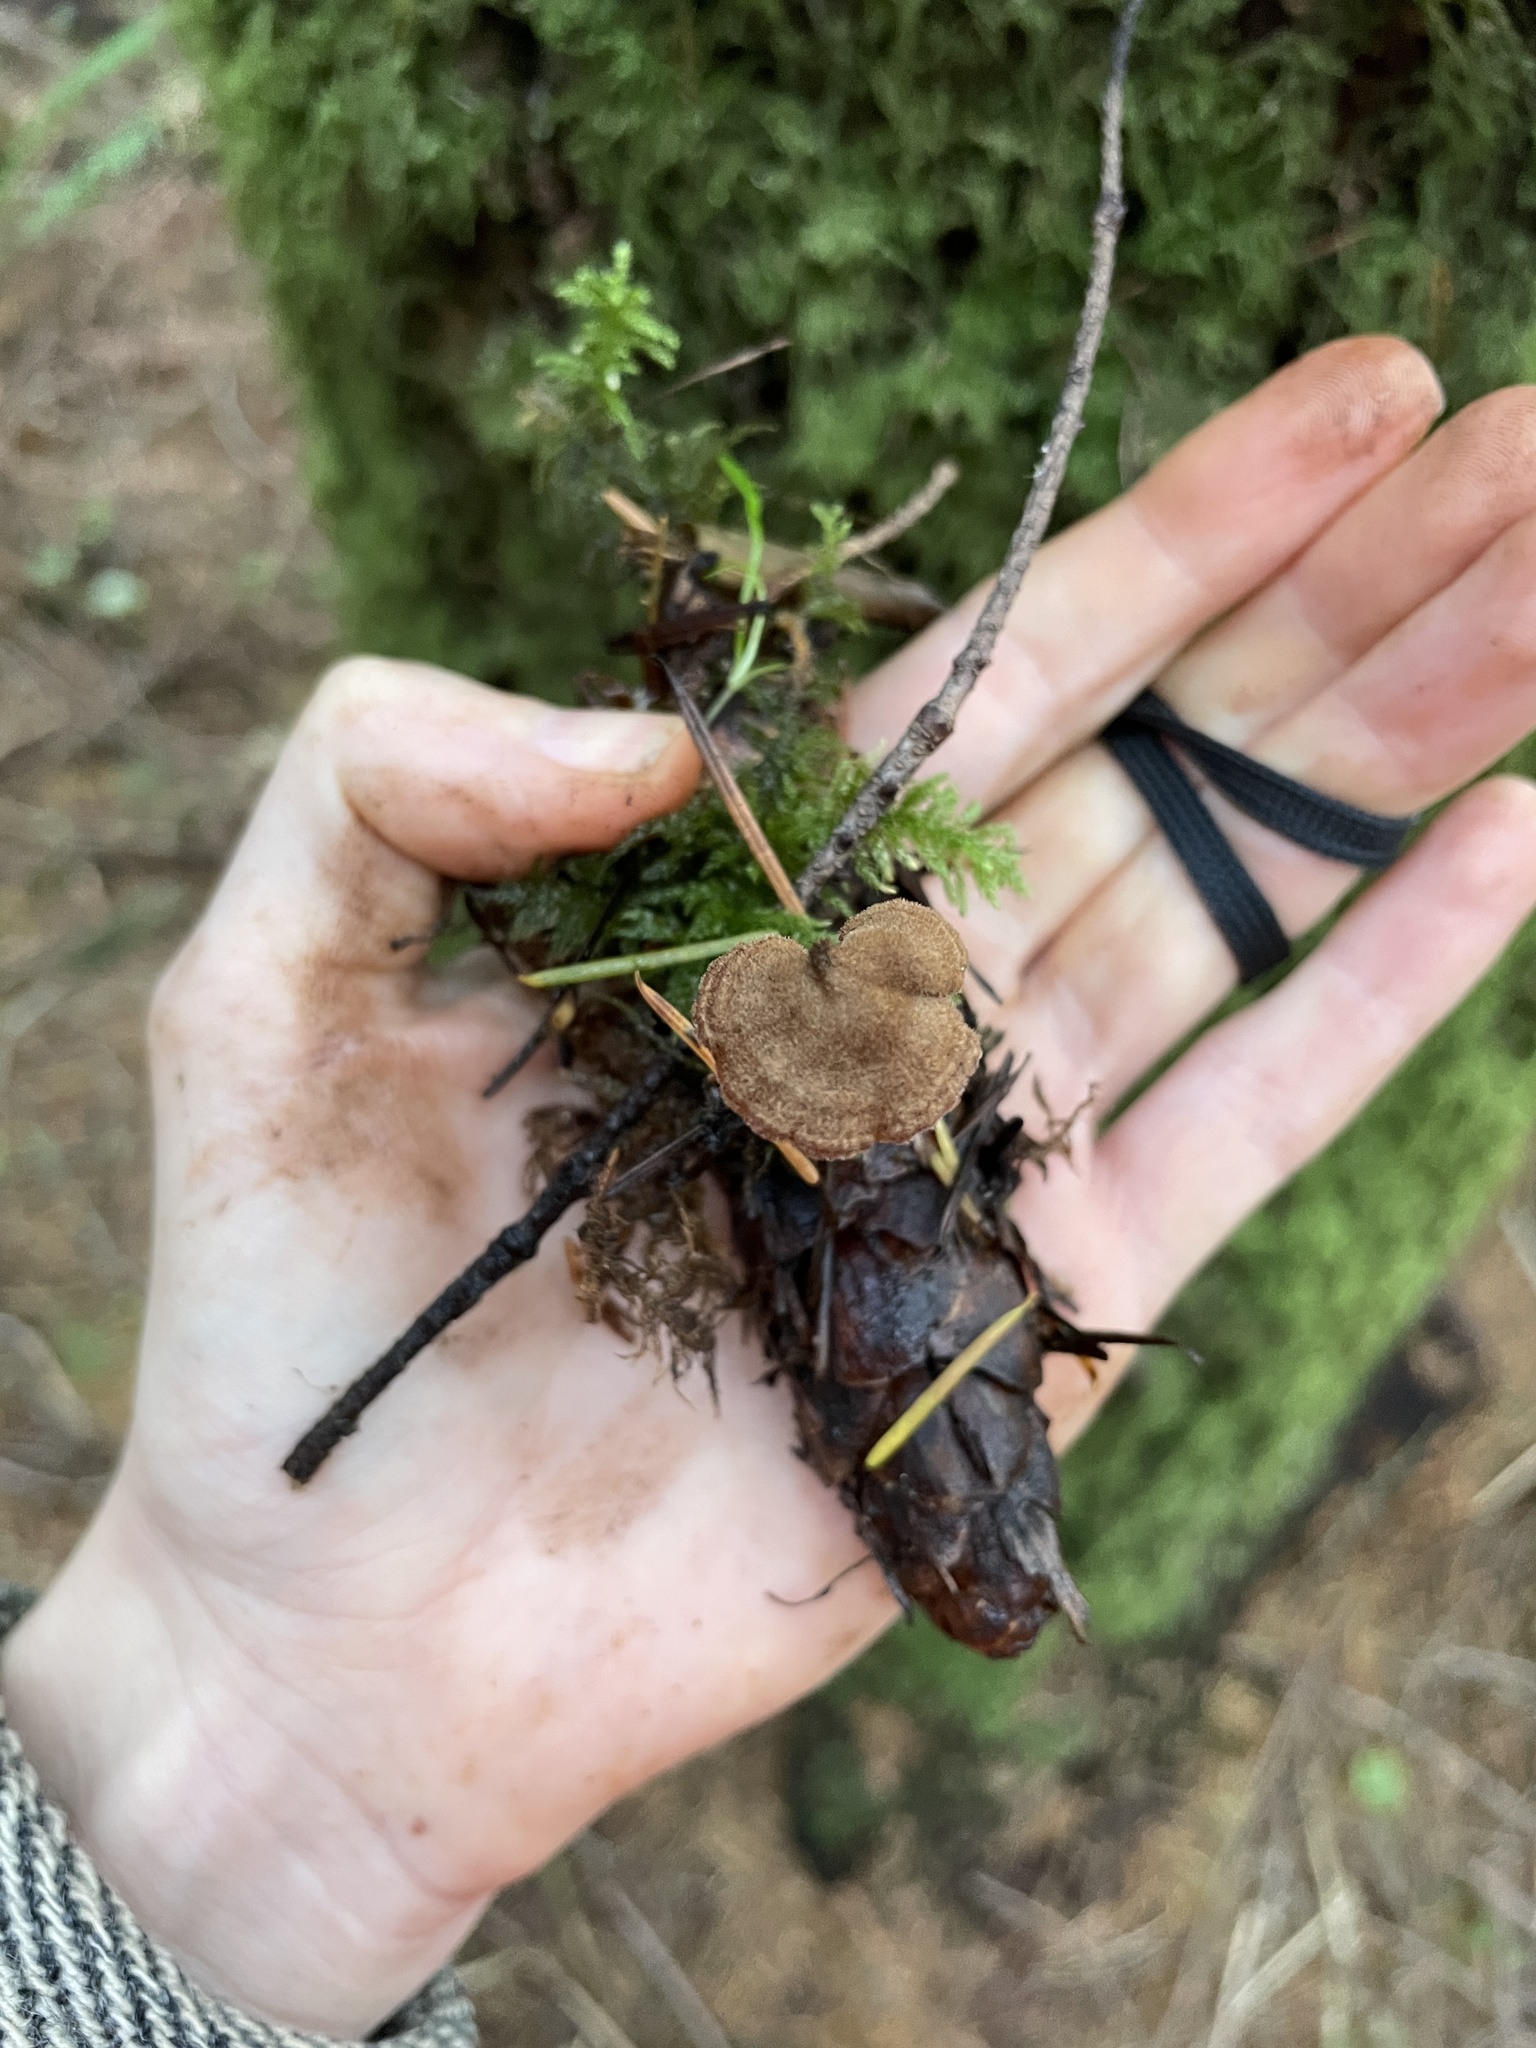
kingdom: Fungi
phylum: Basidiomycota
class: Agaricomycetes
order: Russulales
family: Auriscalpiaceae
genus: Auriscalpium
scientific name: Auriscalpium vulgare
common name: Earpick fungus
